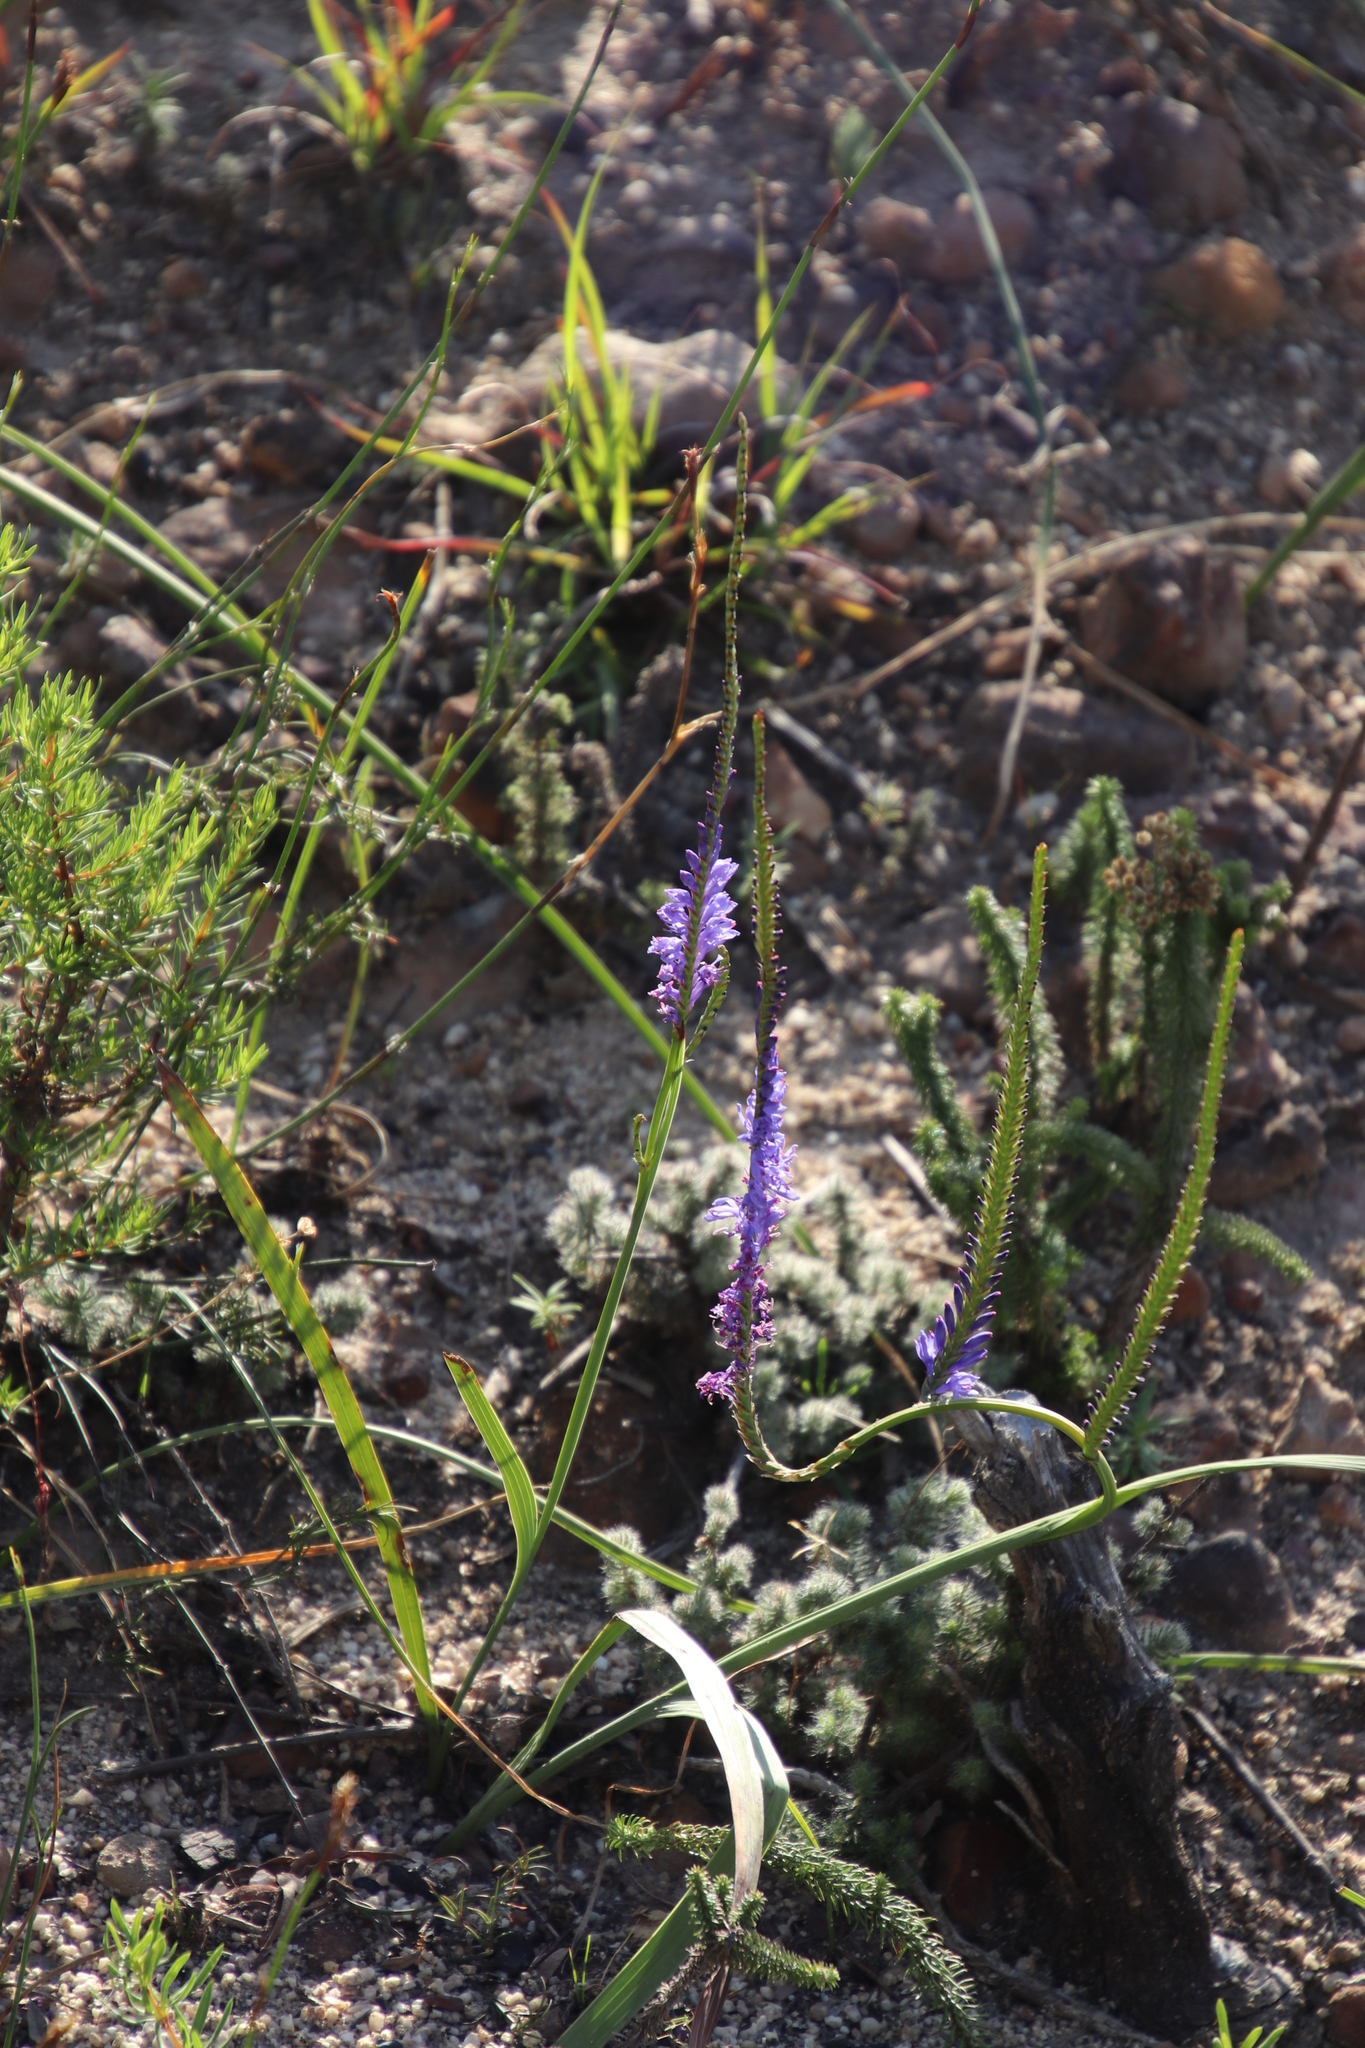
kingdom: Plantae
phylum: Tracheophyta
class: Liliopsida
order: Asparagales
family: Iridaceae
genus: Micranthus
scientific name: Micranthus alopecuroides
